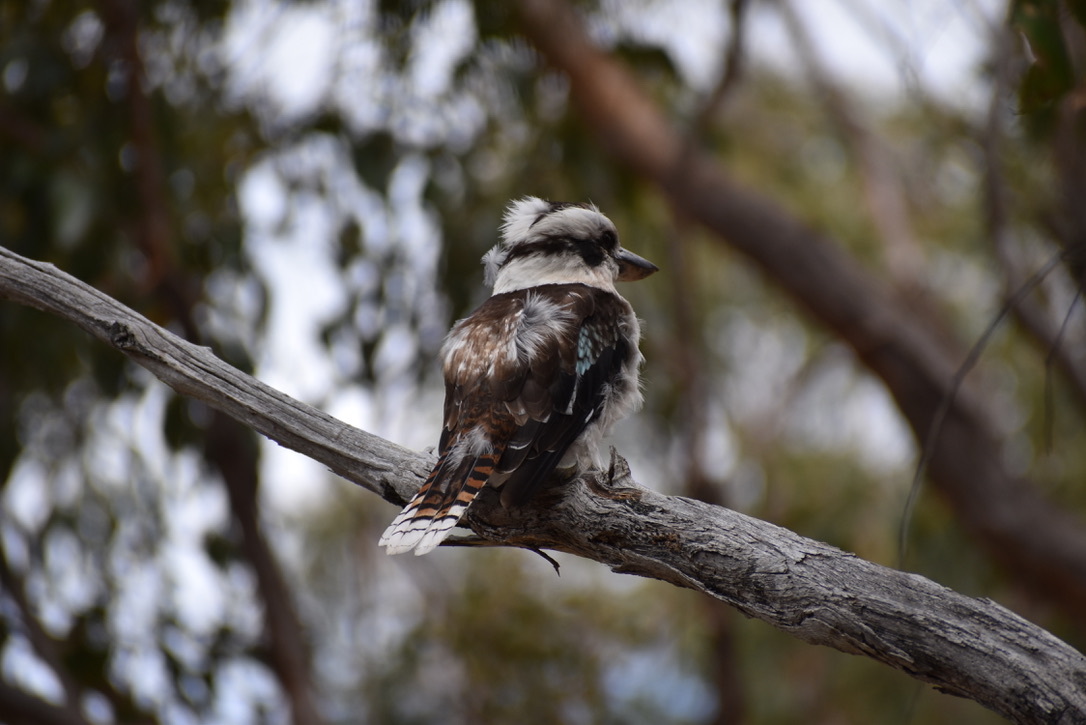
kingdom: Animalia
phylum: Chordata
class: Aves
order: Coraciiformes
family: Alcedinidae
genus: Dacelo
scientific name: Dacelo novaeguineae
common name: Laughing kookaburra
